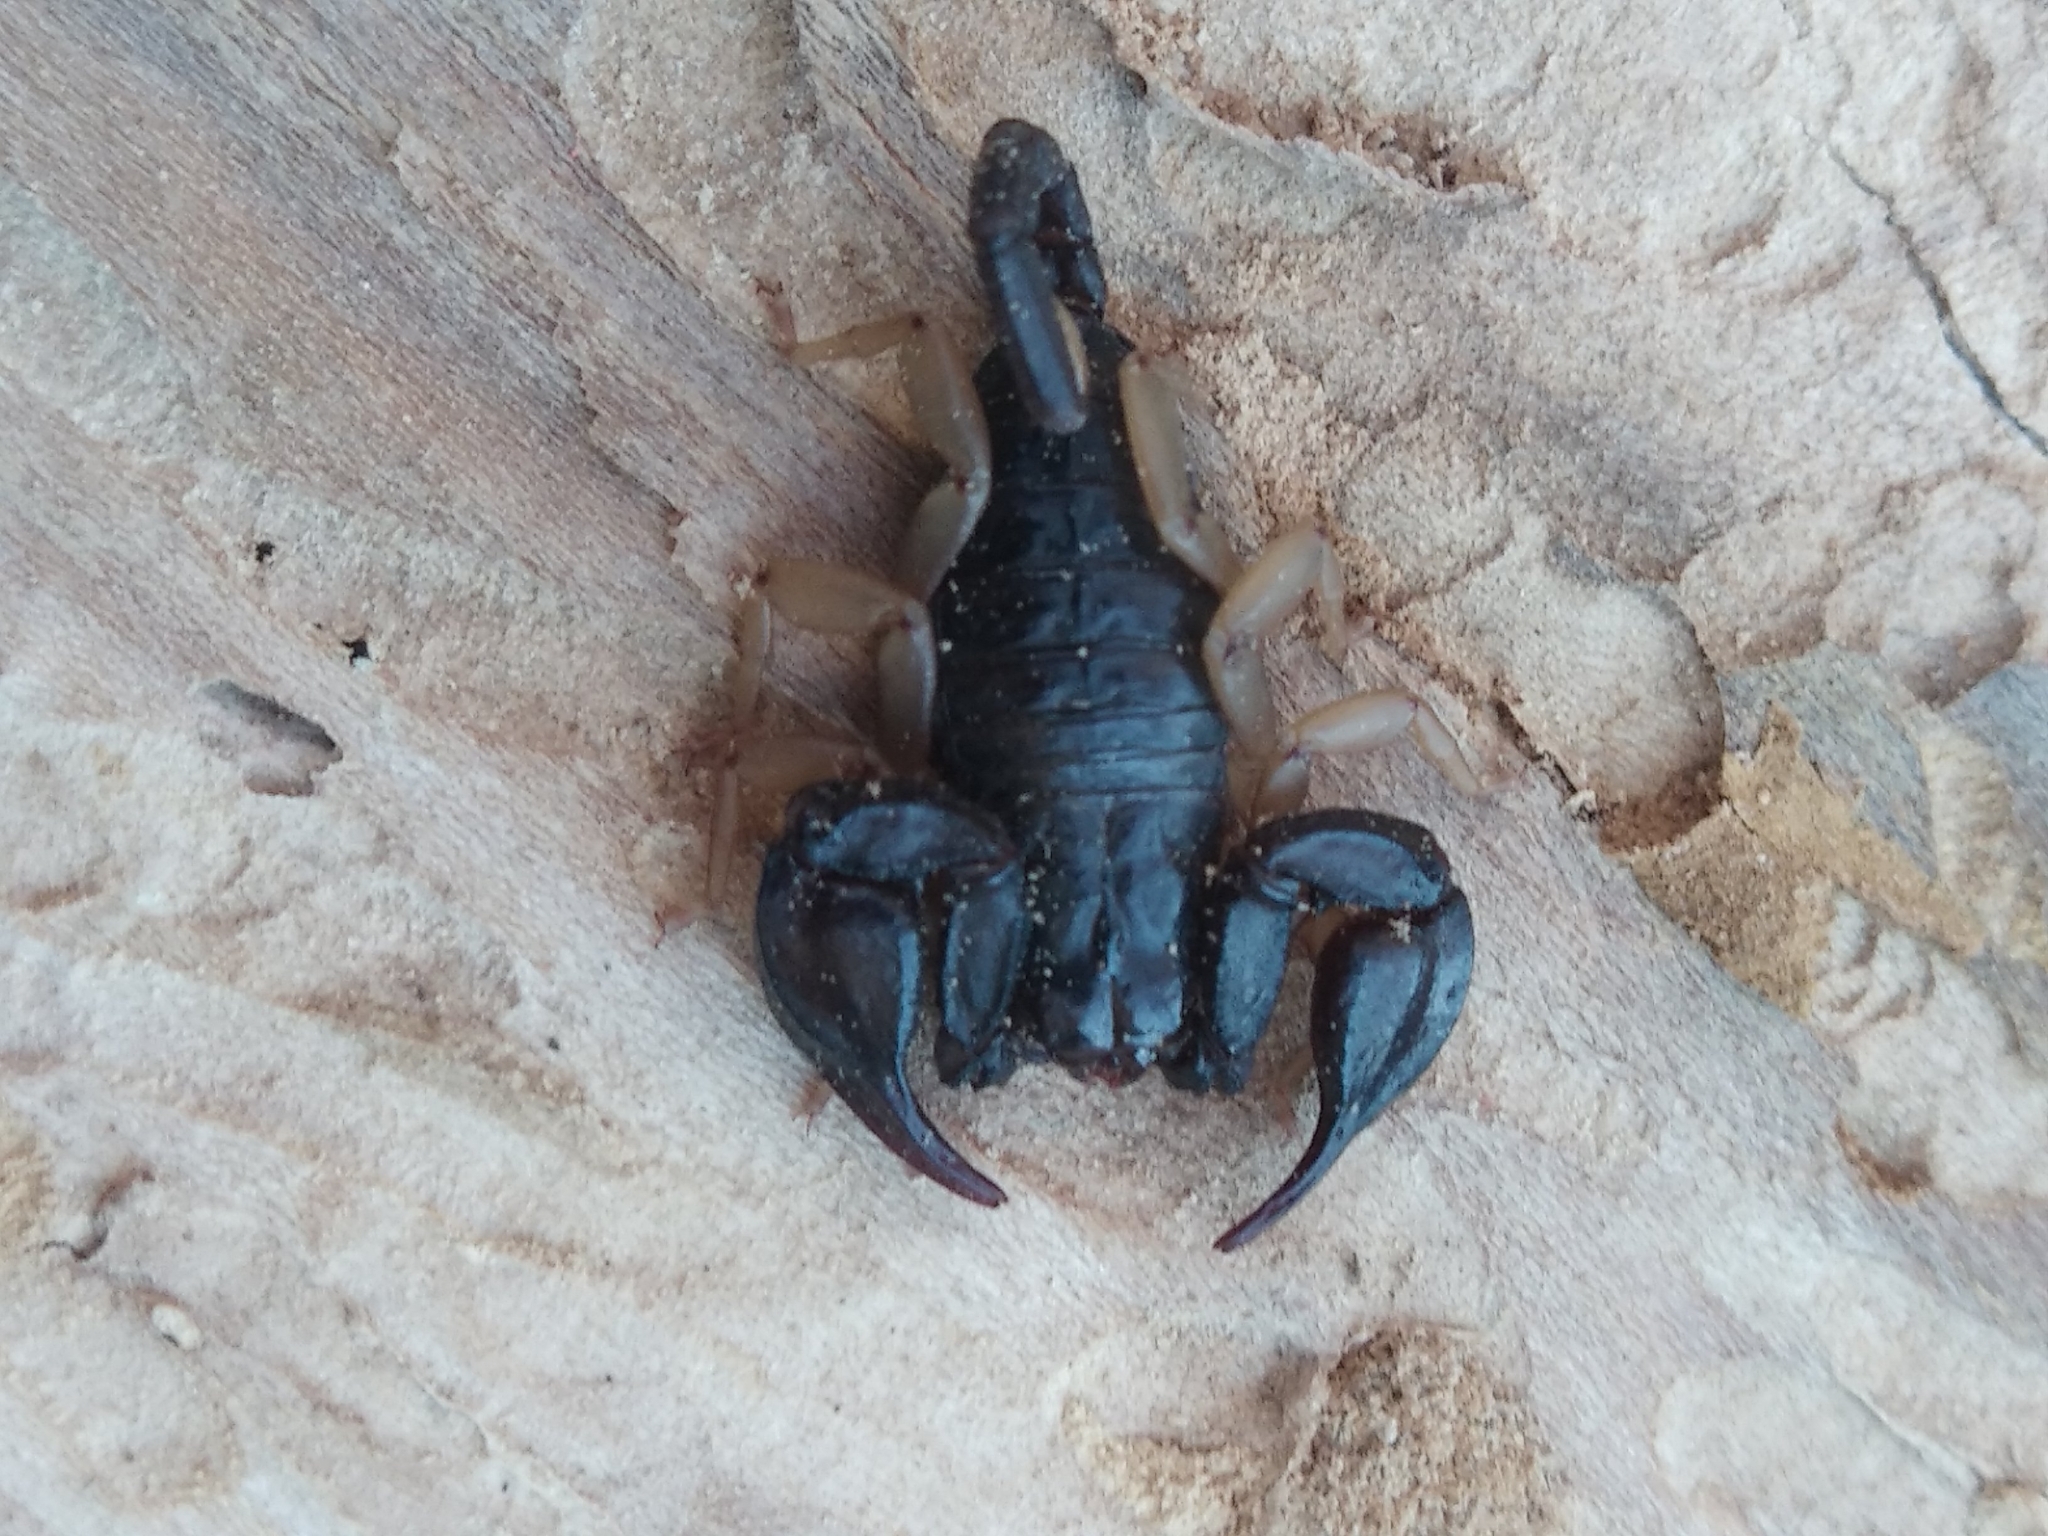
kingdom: Animalia
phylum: Arthropoda
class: Arachnida
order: Scorpiones
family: Euscorpiidae
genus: Euscorpius
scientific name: Euscorpius flavicaudis
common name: European yellow-tailed scorpion
